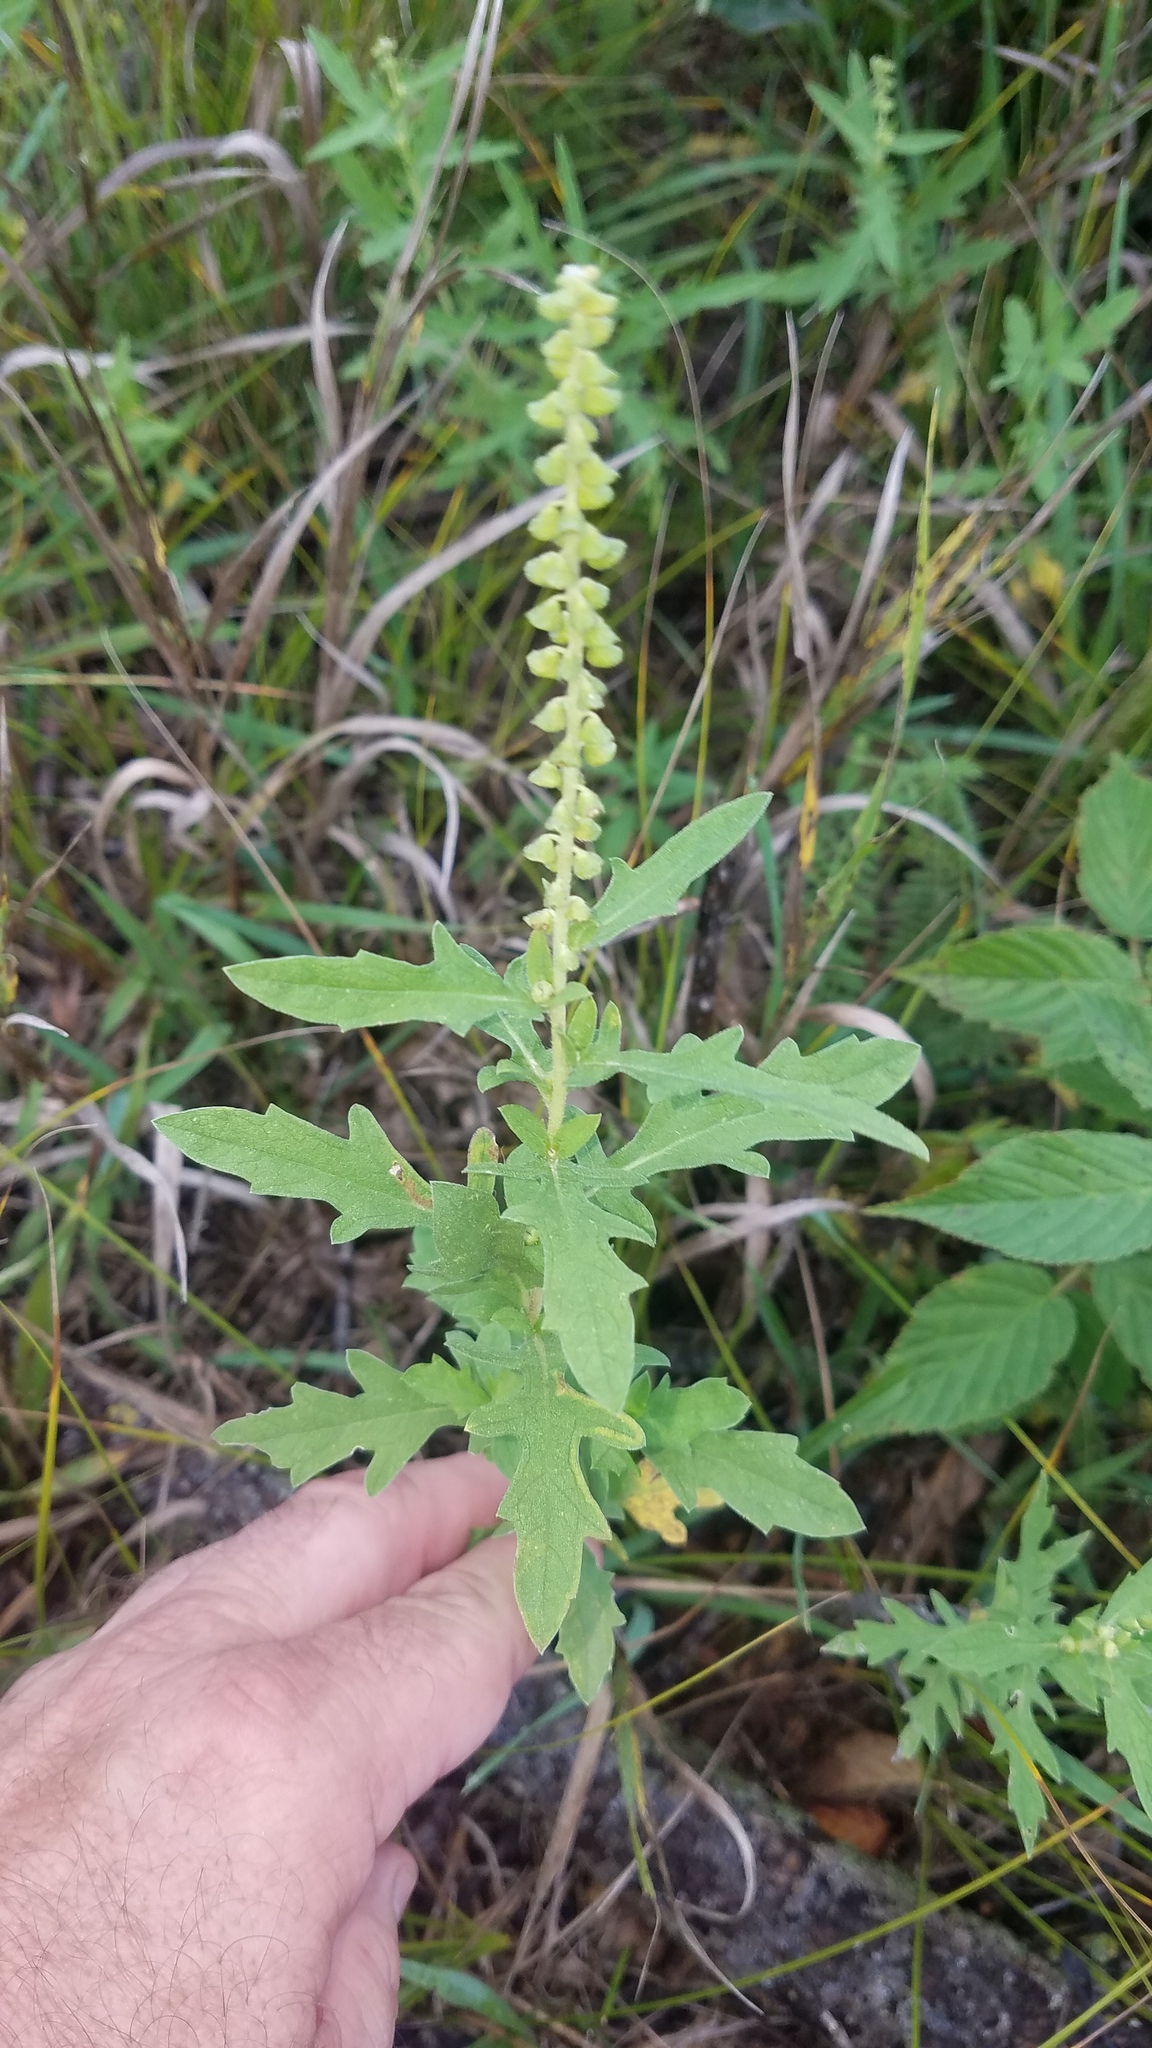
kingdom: Plantae
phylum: Tracheophyta
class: Magnoliopsida
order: Asterales
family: Asteraceae
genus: Ambrosia
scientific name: Ambrosia psilostachya
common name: Perennial ragweed
